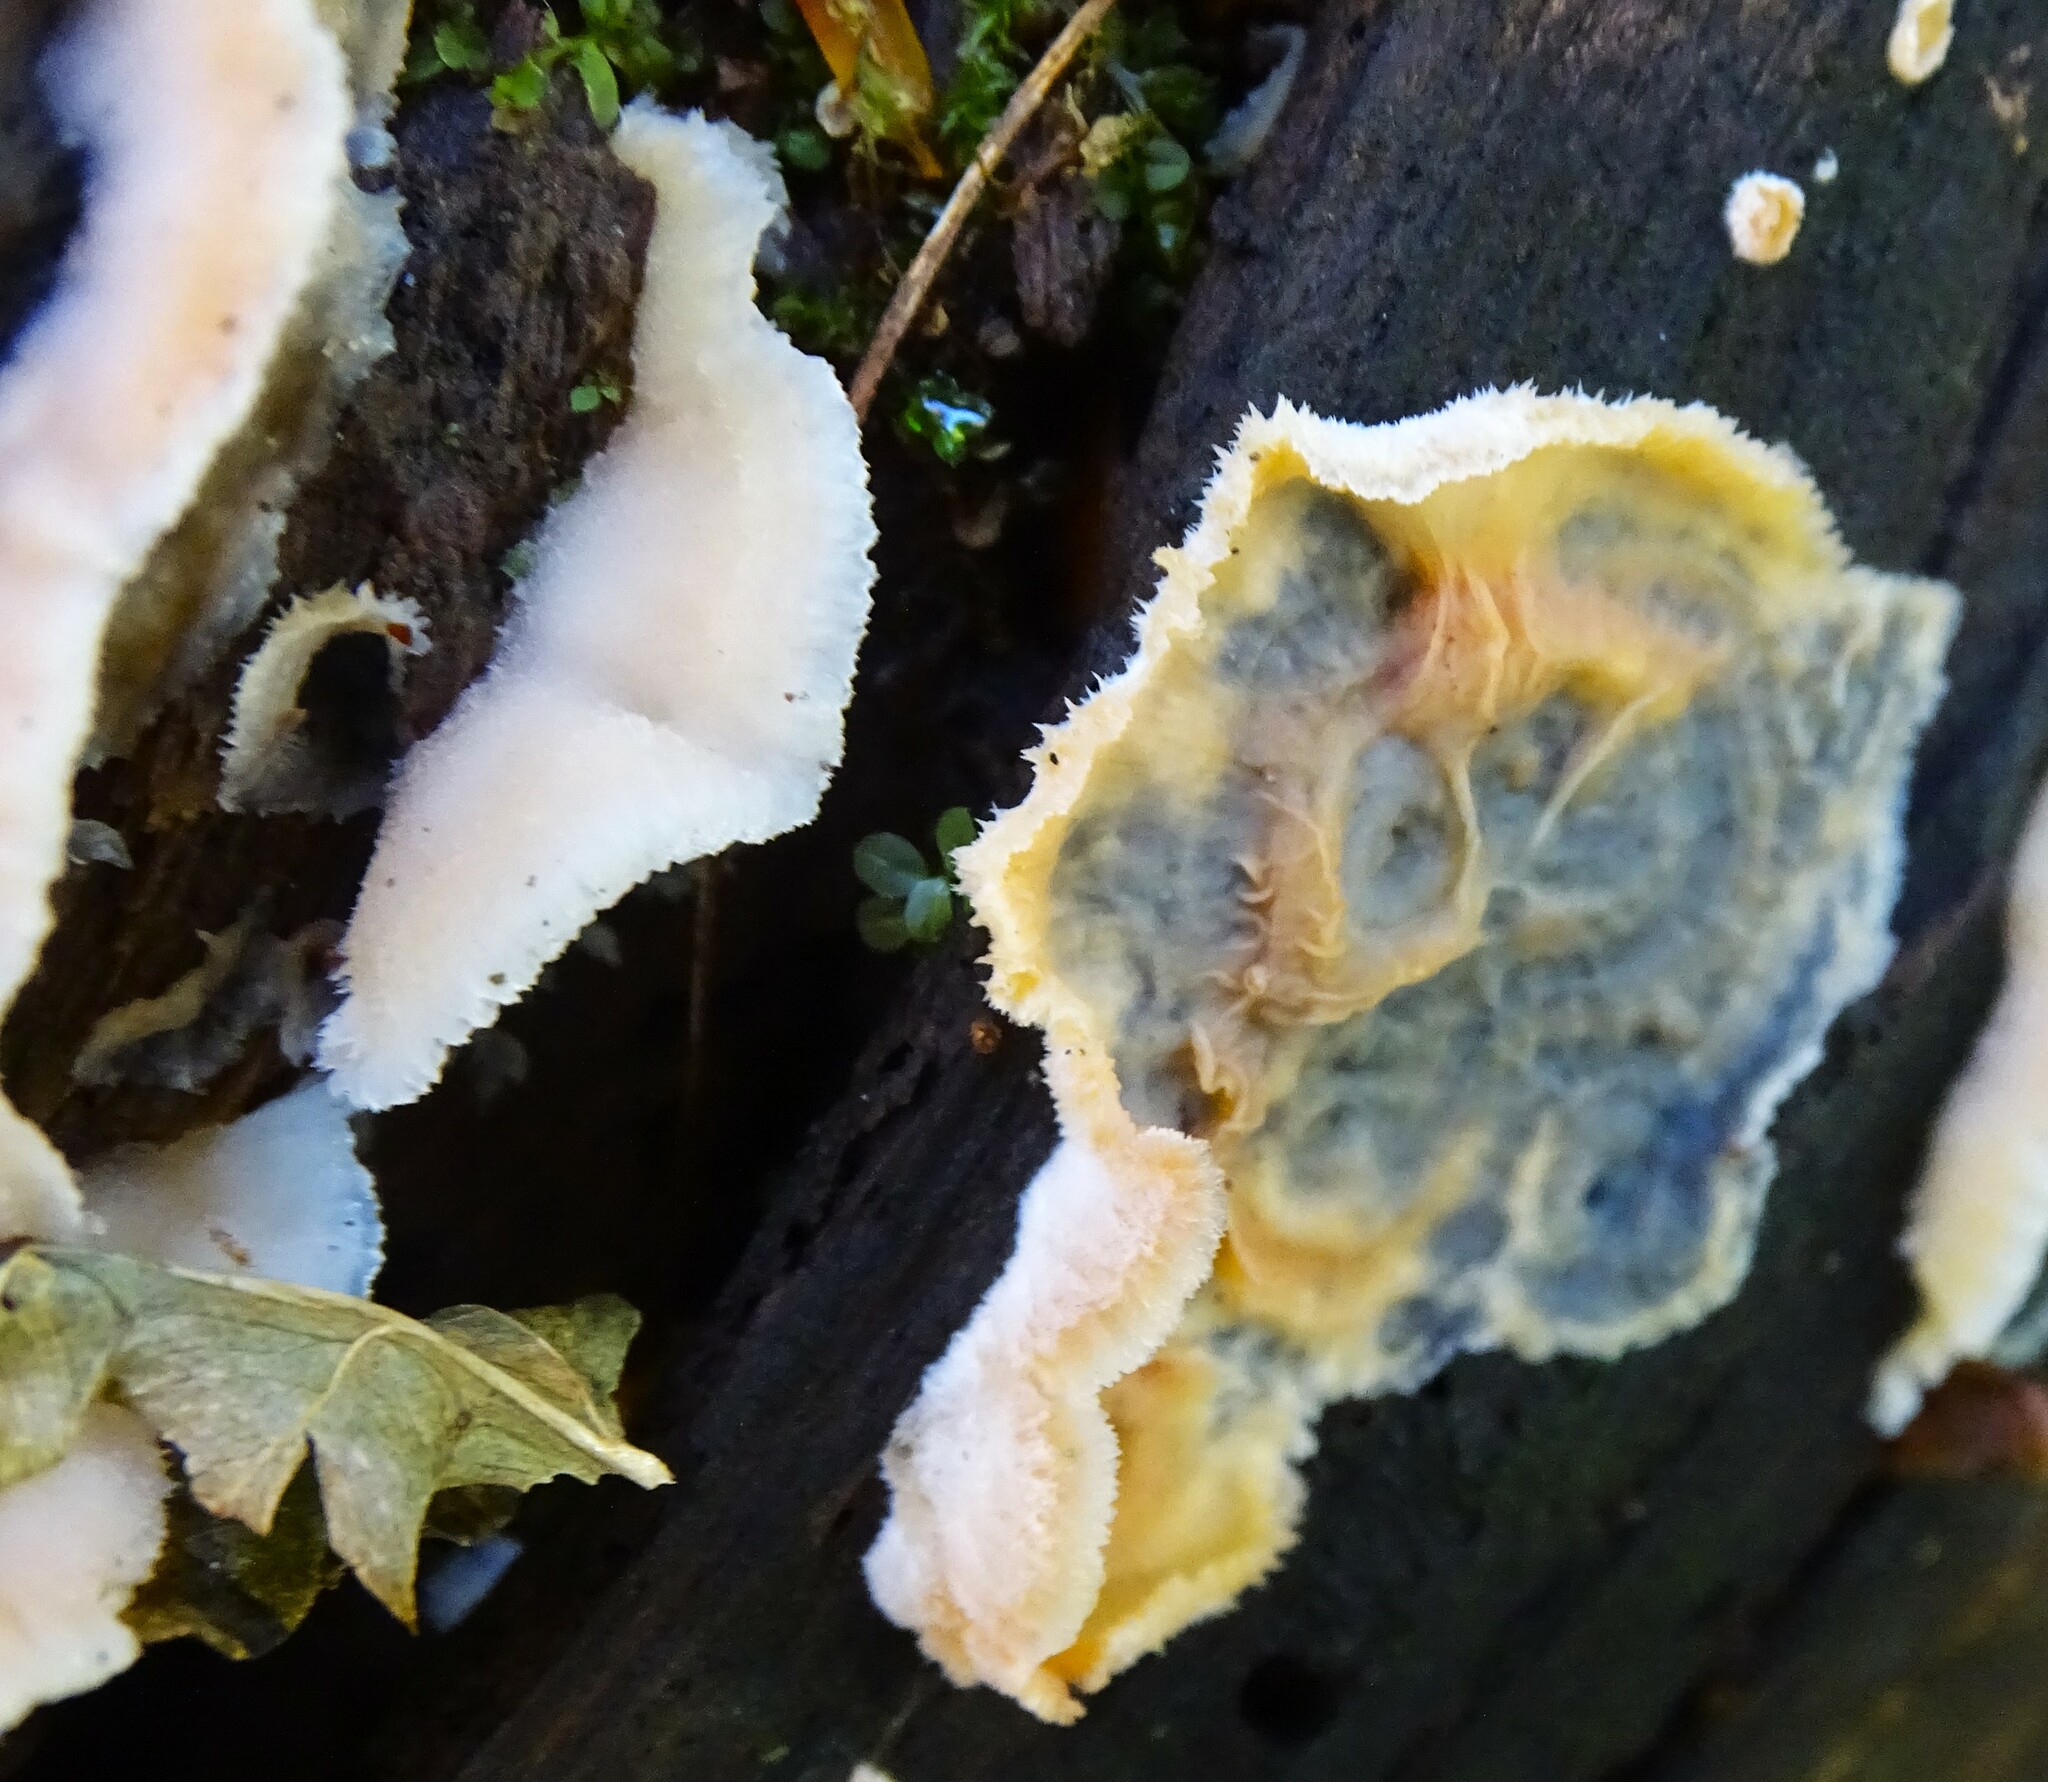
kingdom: Fungi
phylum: Basidiomycota
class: Agaricomycetes
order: Polyporales
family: Meruliaceae
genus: Phlebia
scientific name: Phlebia tremellosa
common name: Jelly rot
